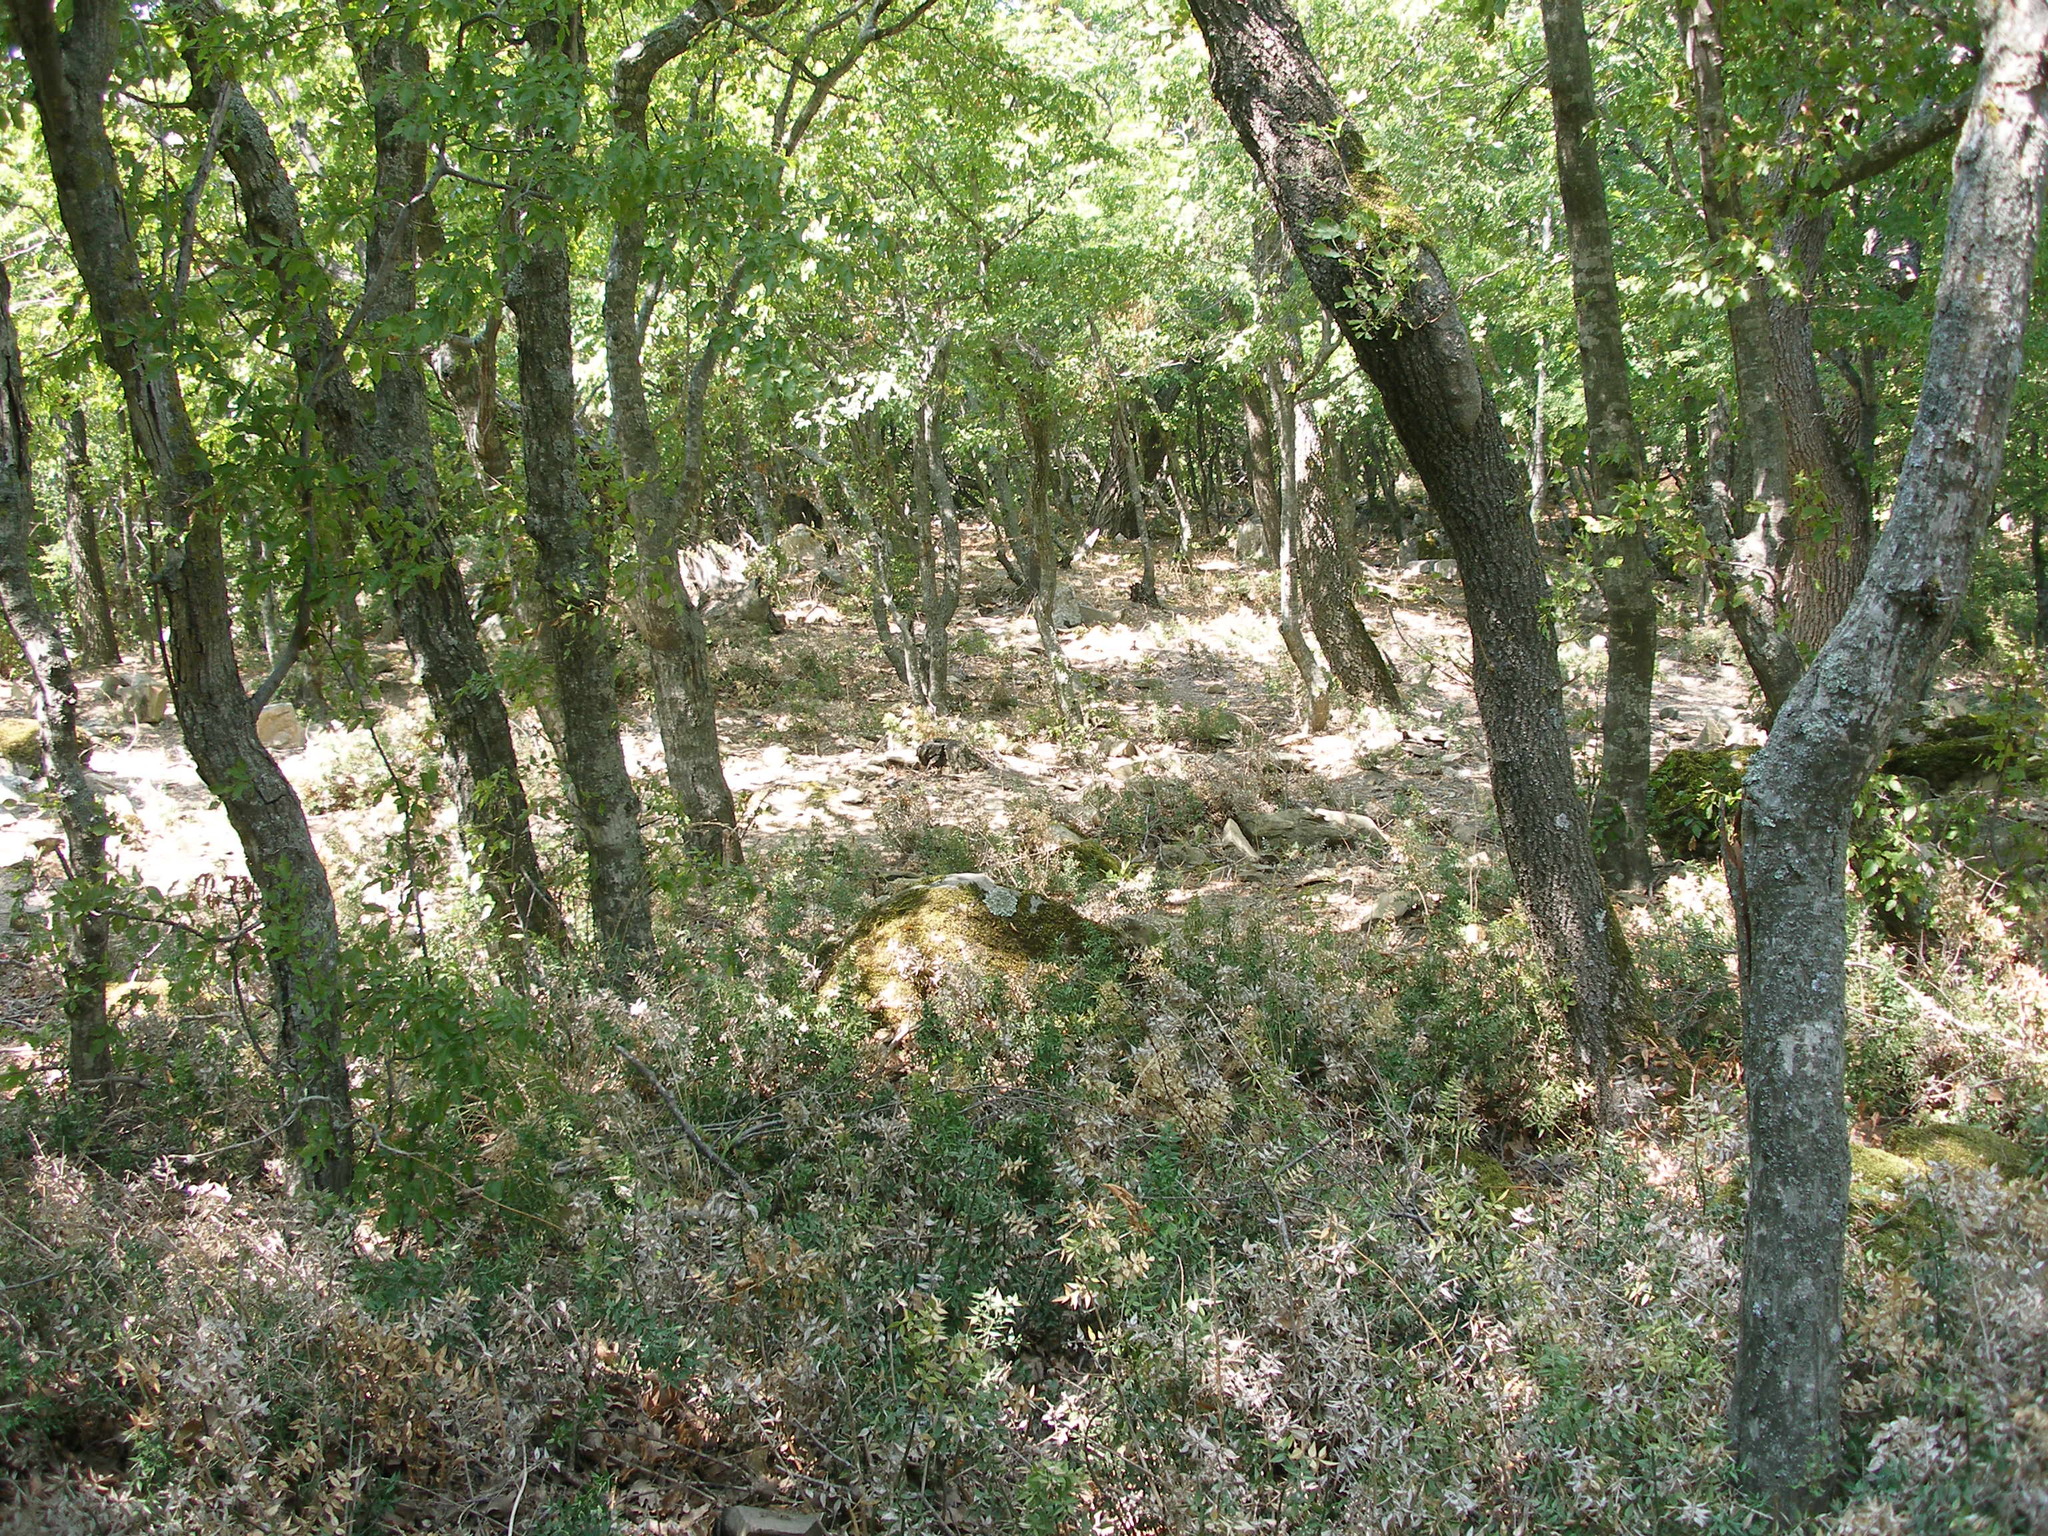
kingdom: Plantae
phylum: Tracheophyta
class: Liliopsida
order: Asparagales
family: Asparagaceae
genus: Ruscus
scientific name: Ruscus aculeatus
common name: Butcher's-broom
